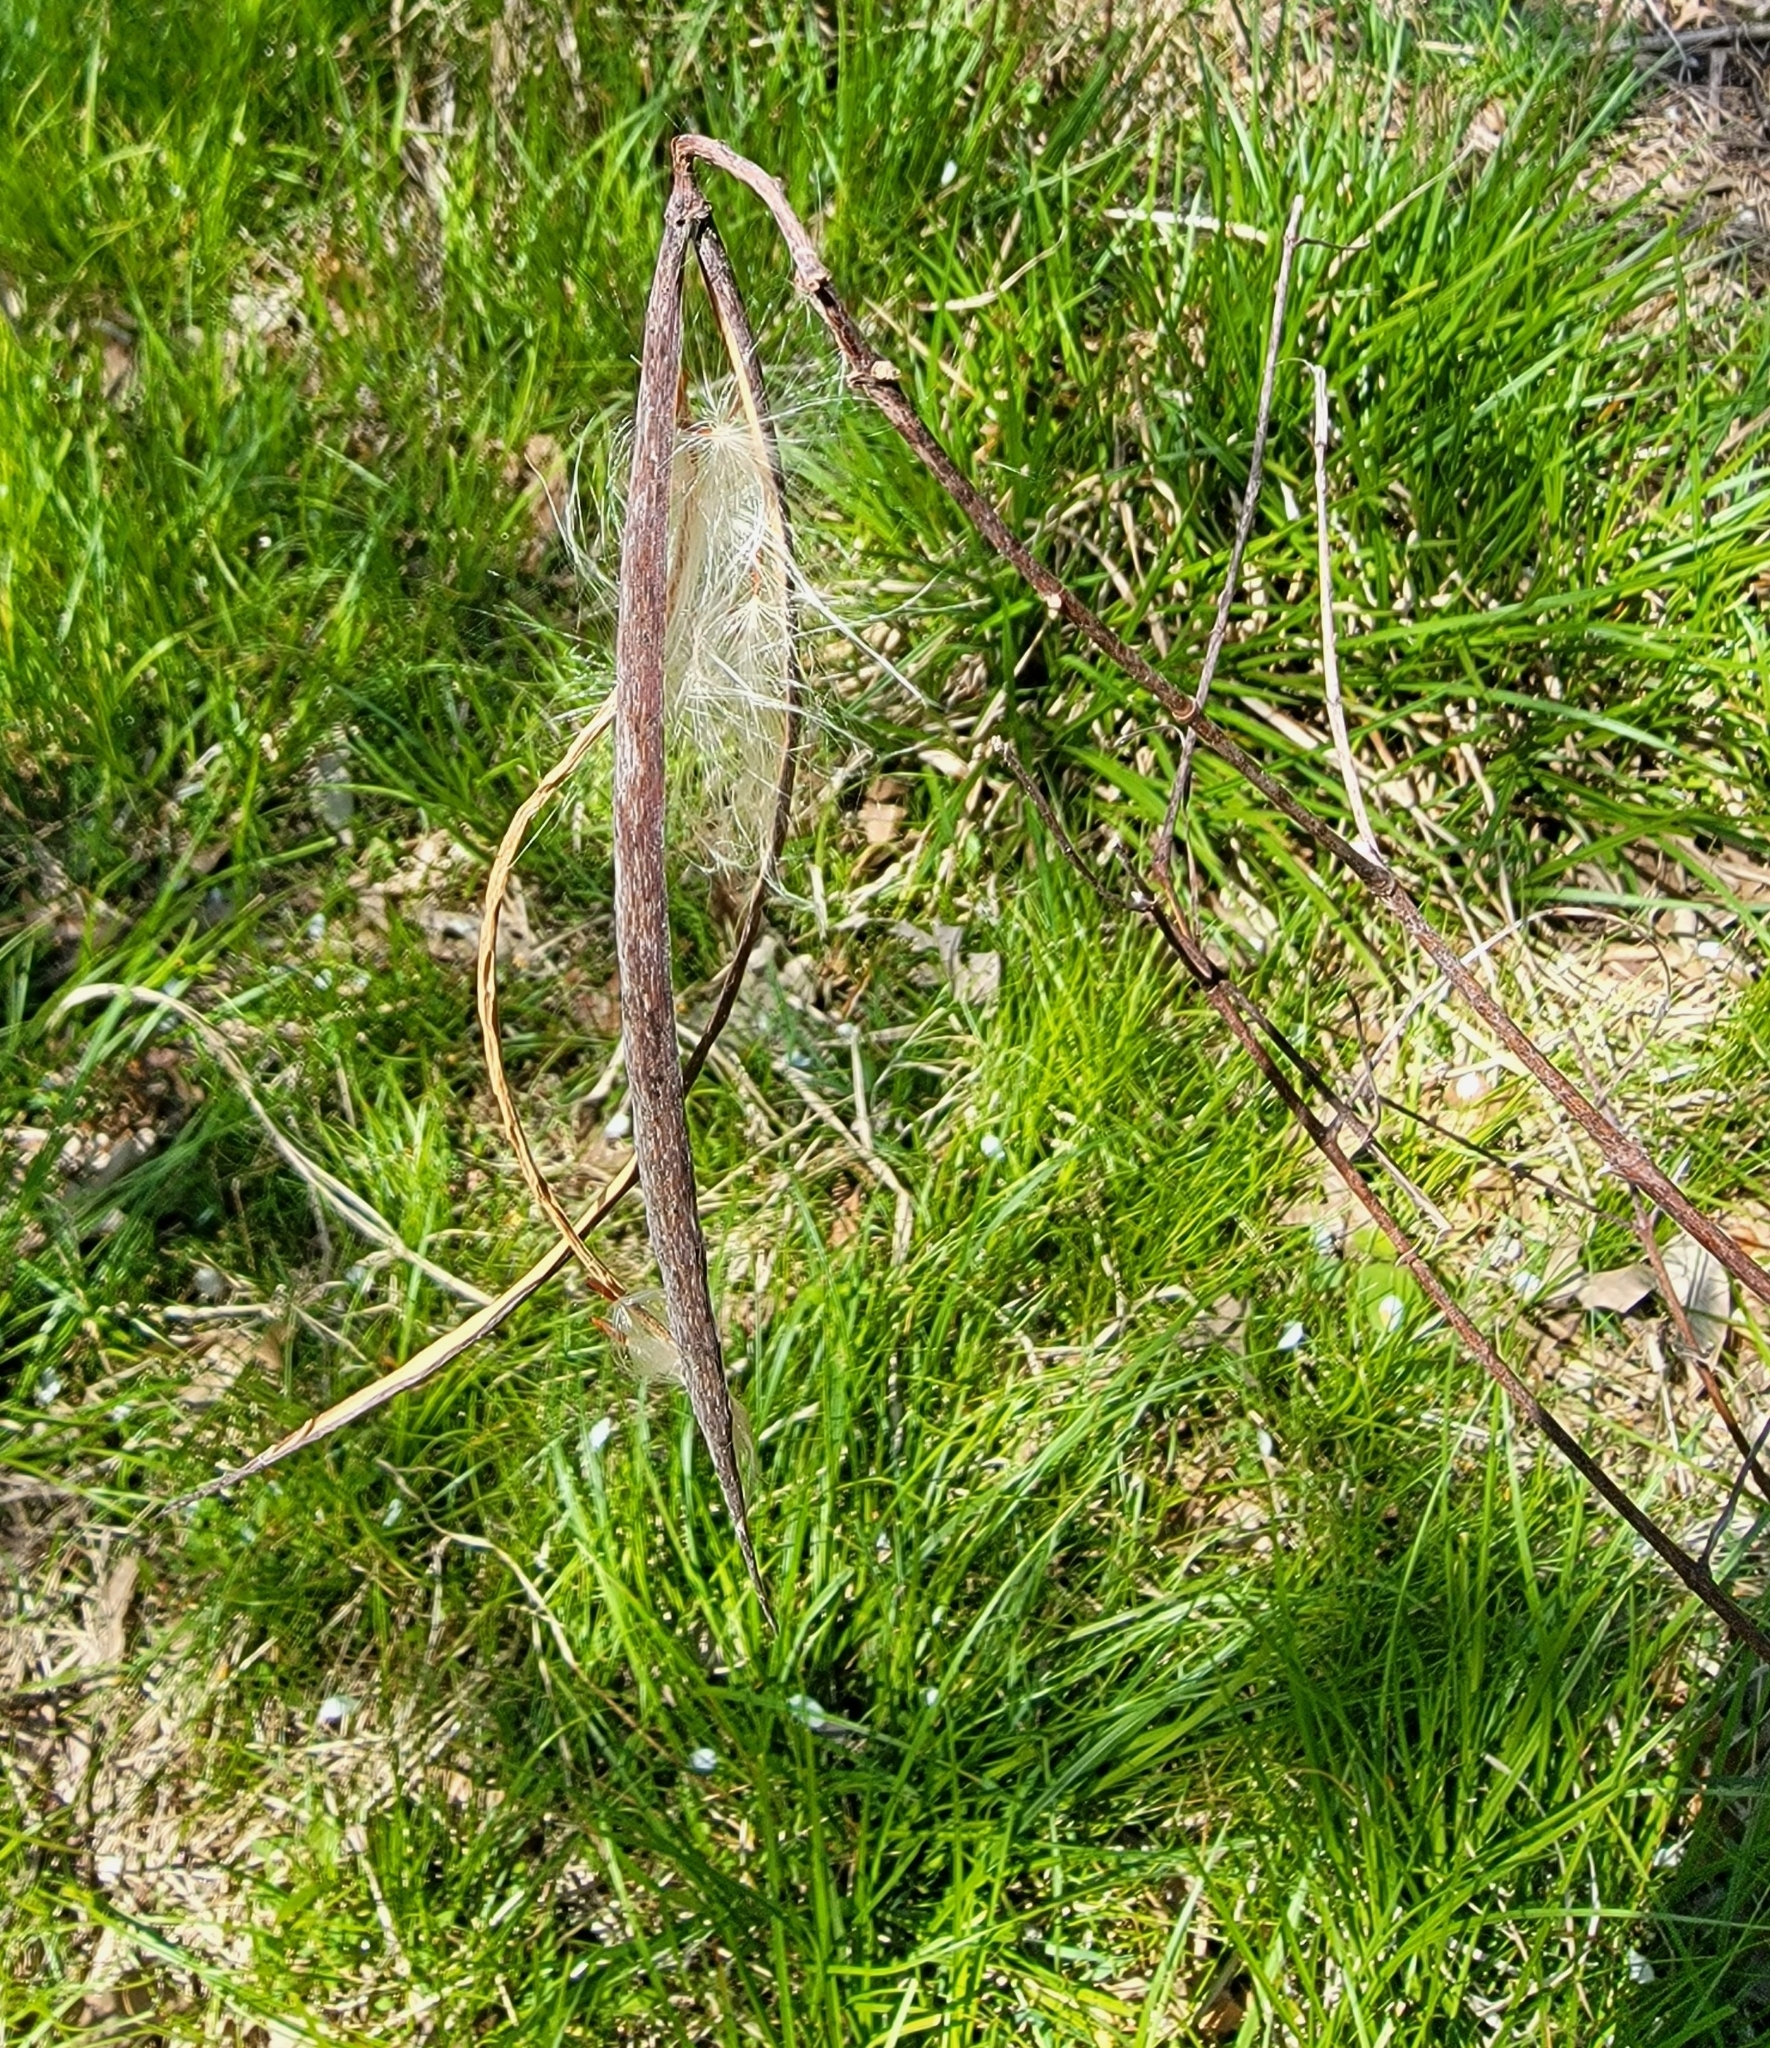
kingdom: Plantae
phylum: Tracheophyta
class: Magnoliopsida
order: Gentianales
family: Apocynaceae
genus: Apocynum
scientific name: Apocynum cannabinum
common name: Hemp dogbane
